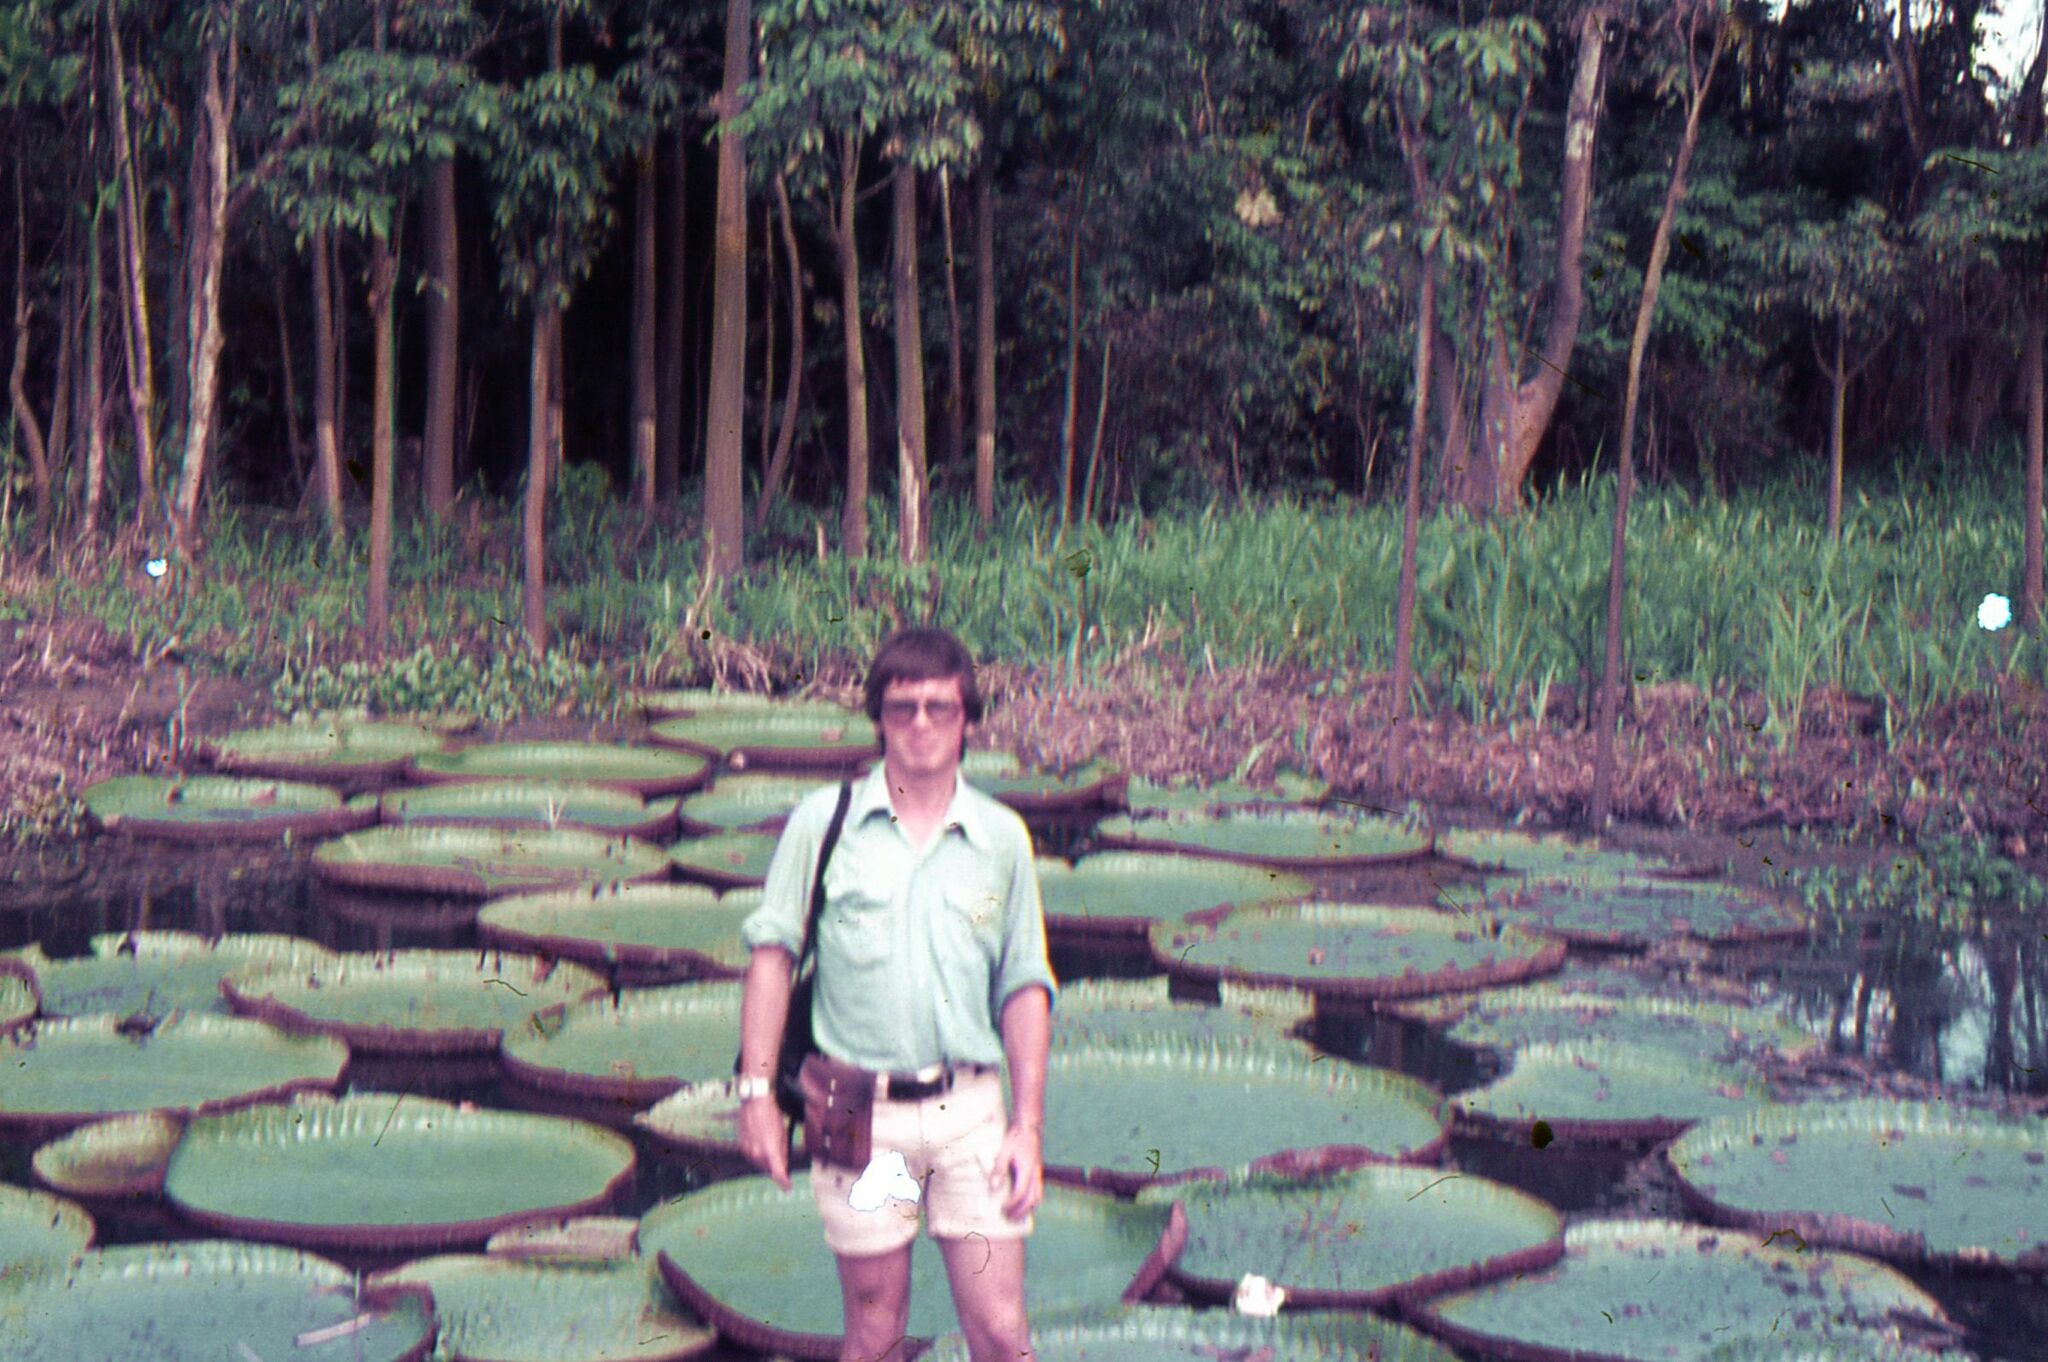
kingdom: Plantae
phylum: Tracheophyta
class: Magnoliopsida
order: Nymphaeales
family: Nymphaeaceae
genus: Victoria
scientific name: Victoria amazonica
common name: Amazon water-lily
